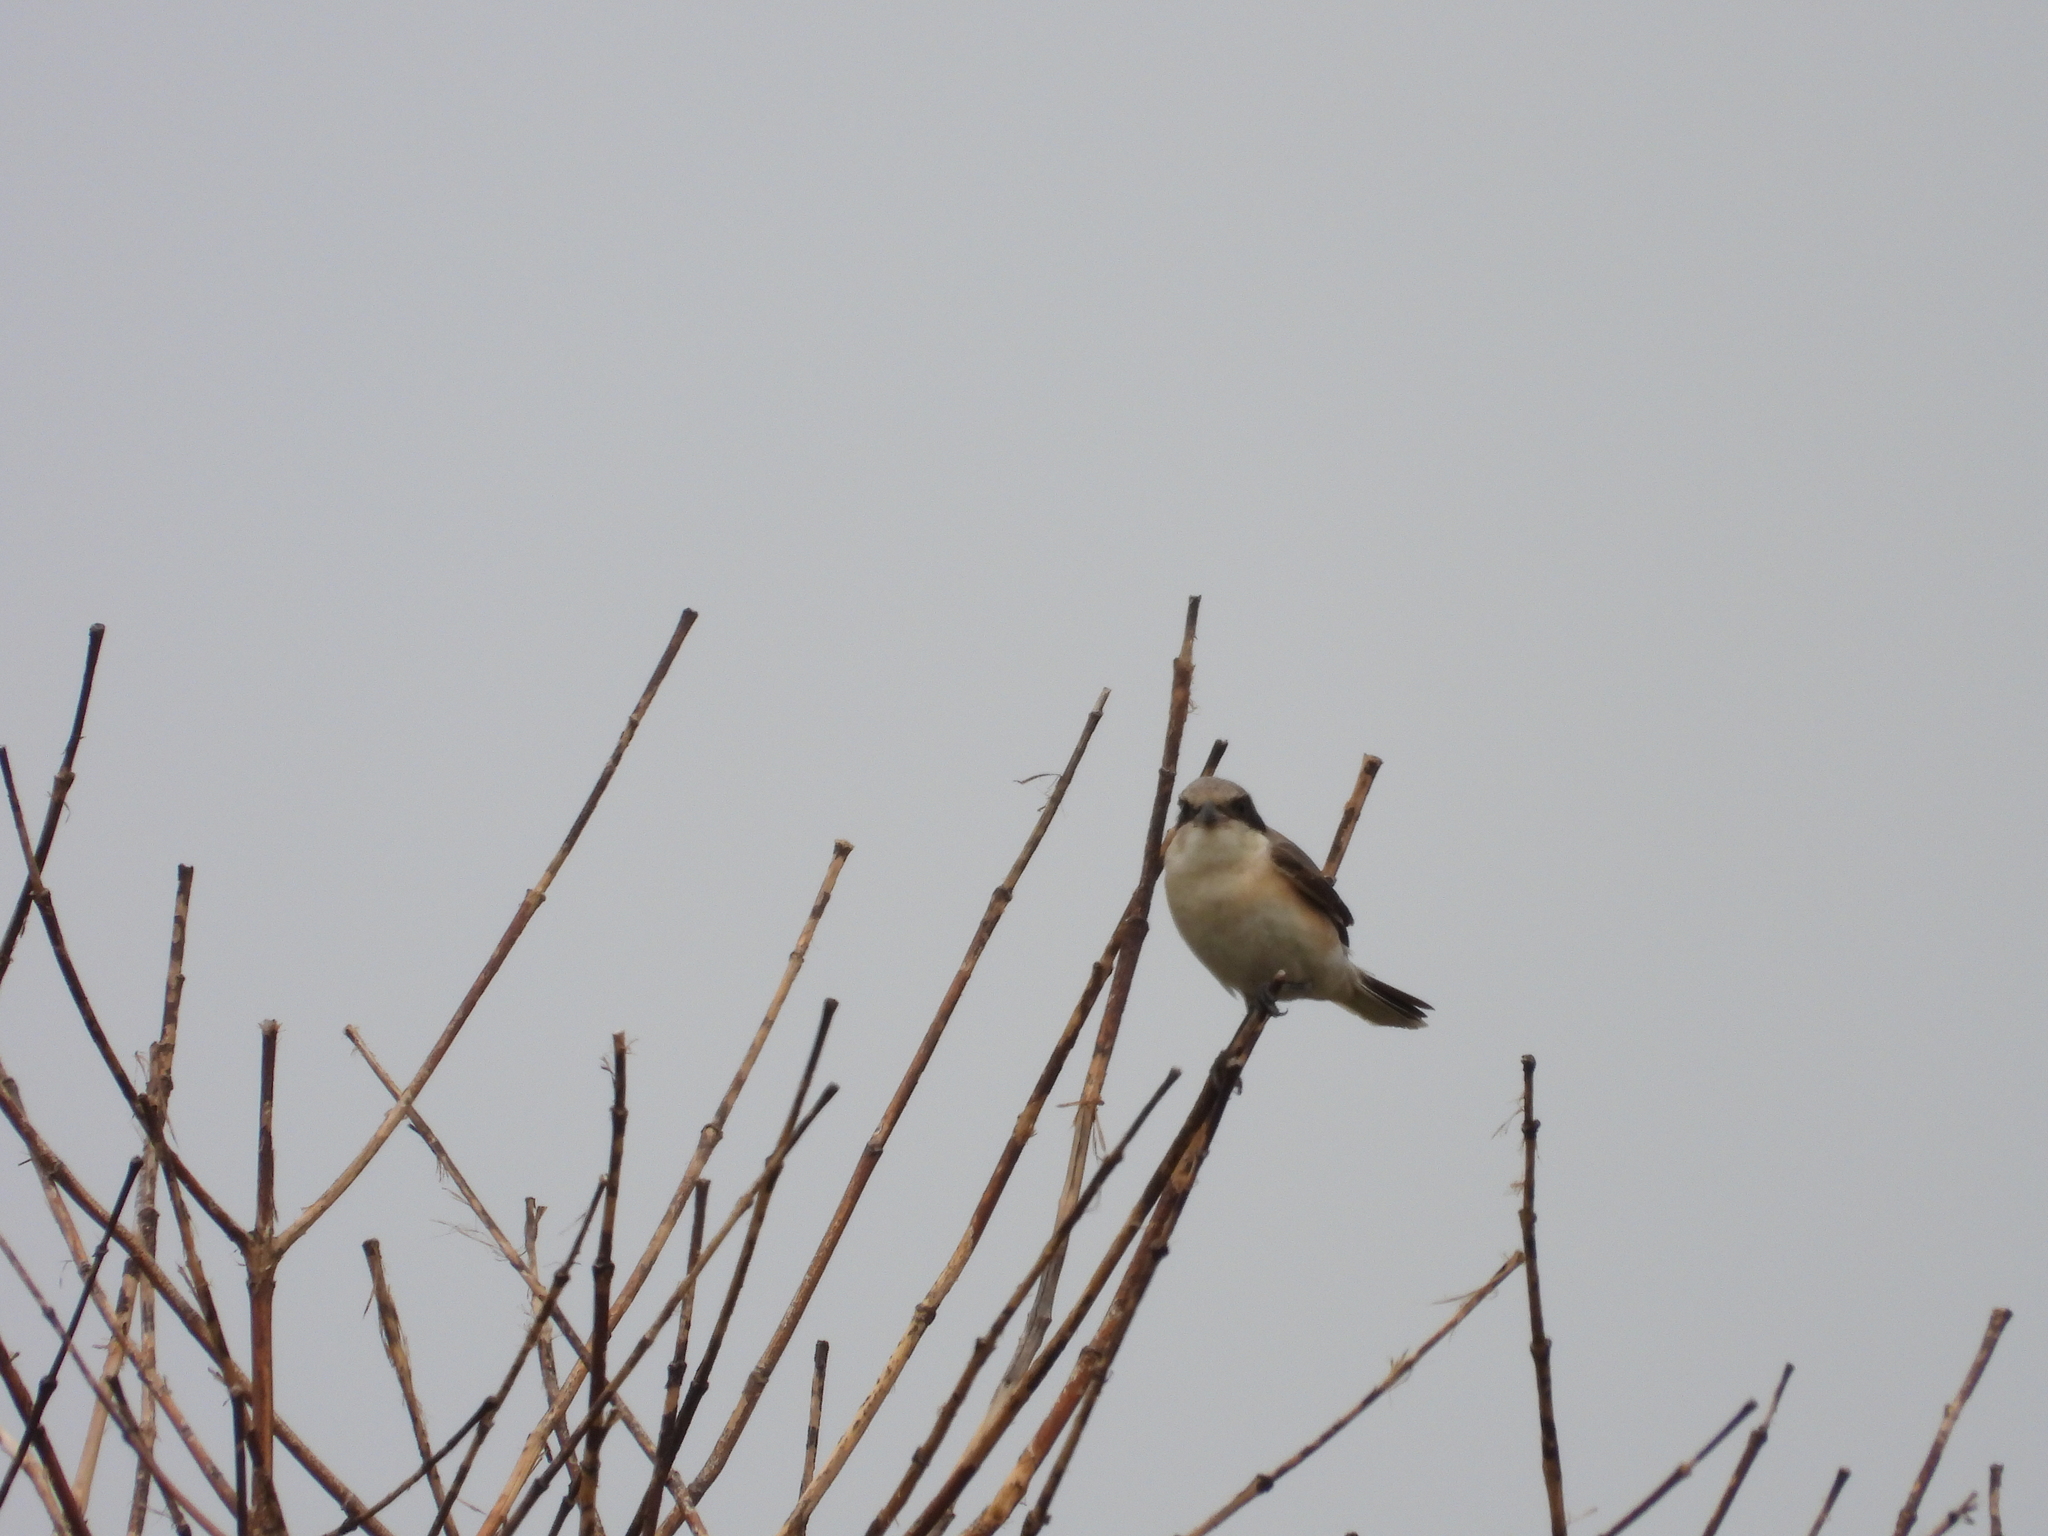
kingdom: Animalia
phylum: Chordata
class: Aves
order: Passeriformes
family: Laniidae
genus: Lanius
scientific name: Lanius minor
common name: Lesser grey shrike
